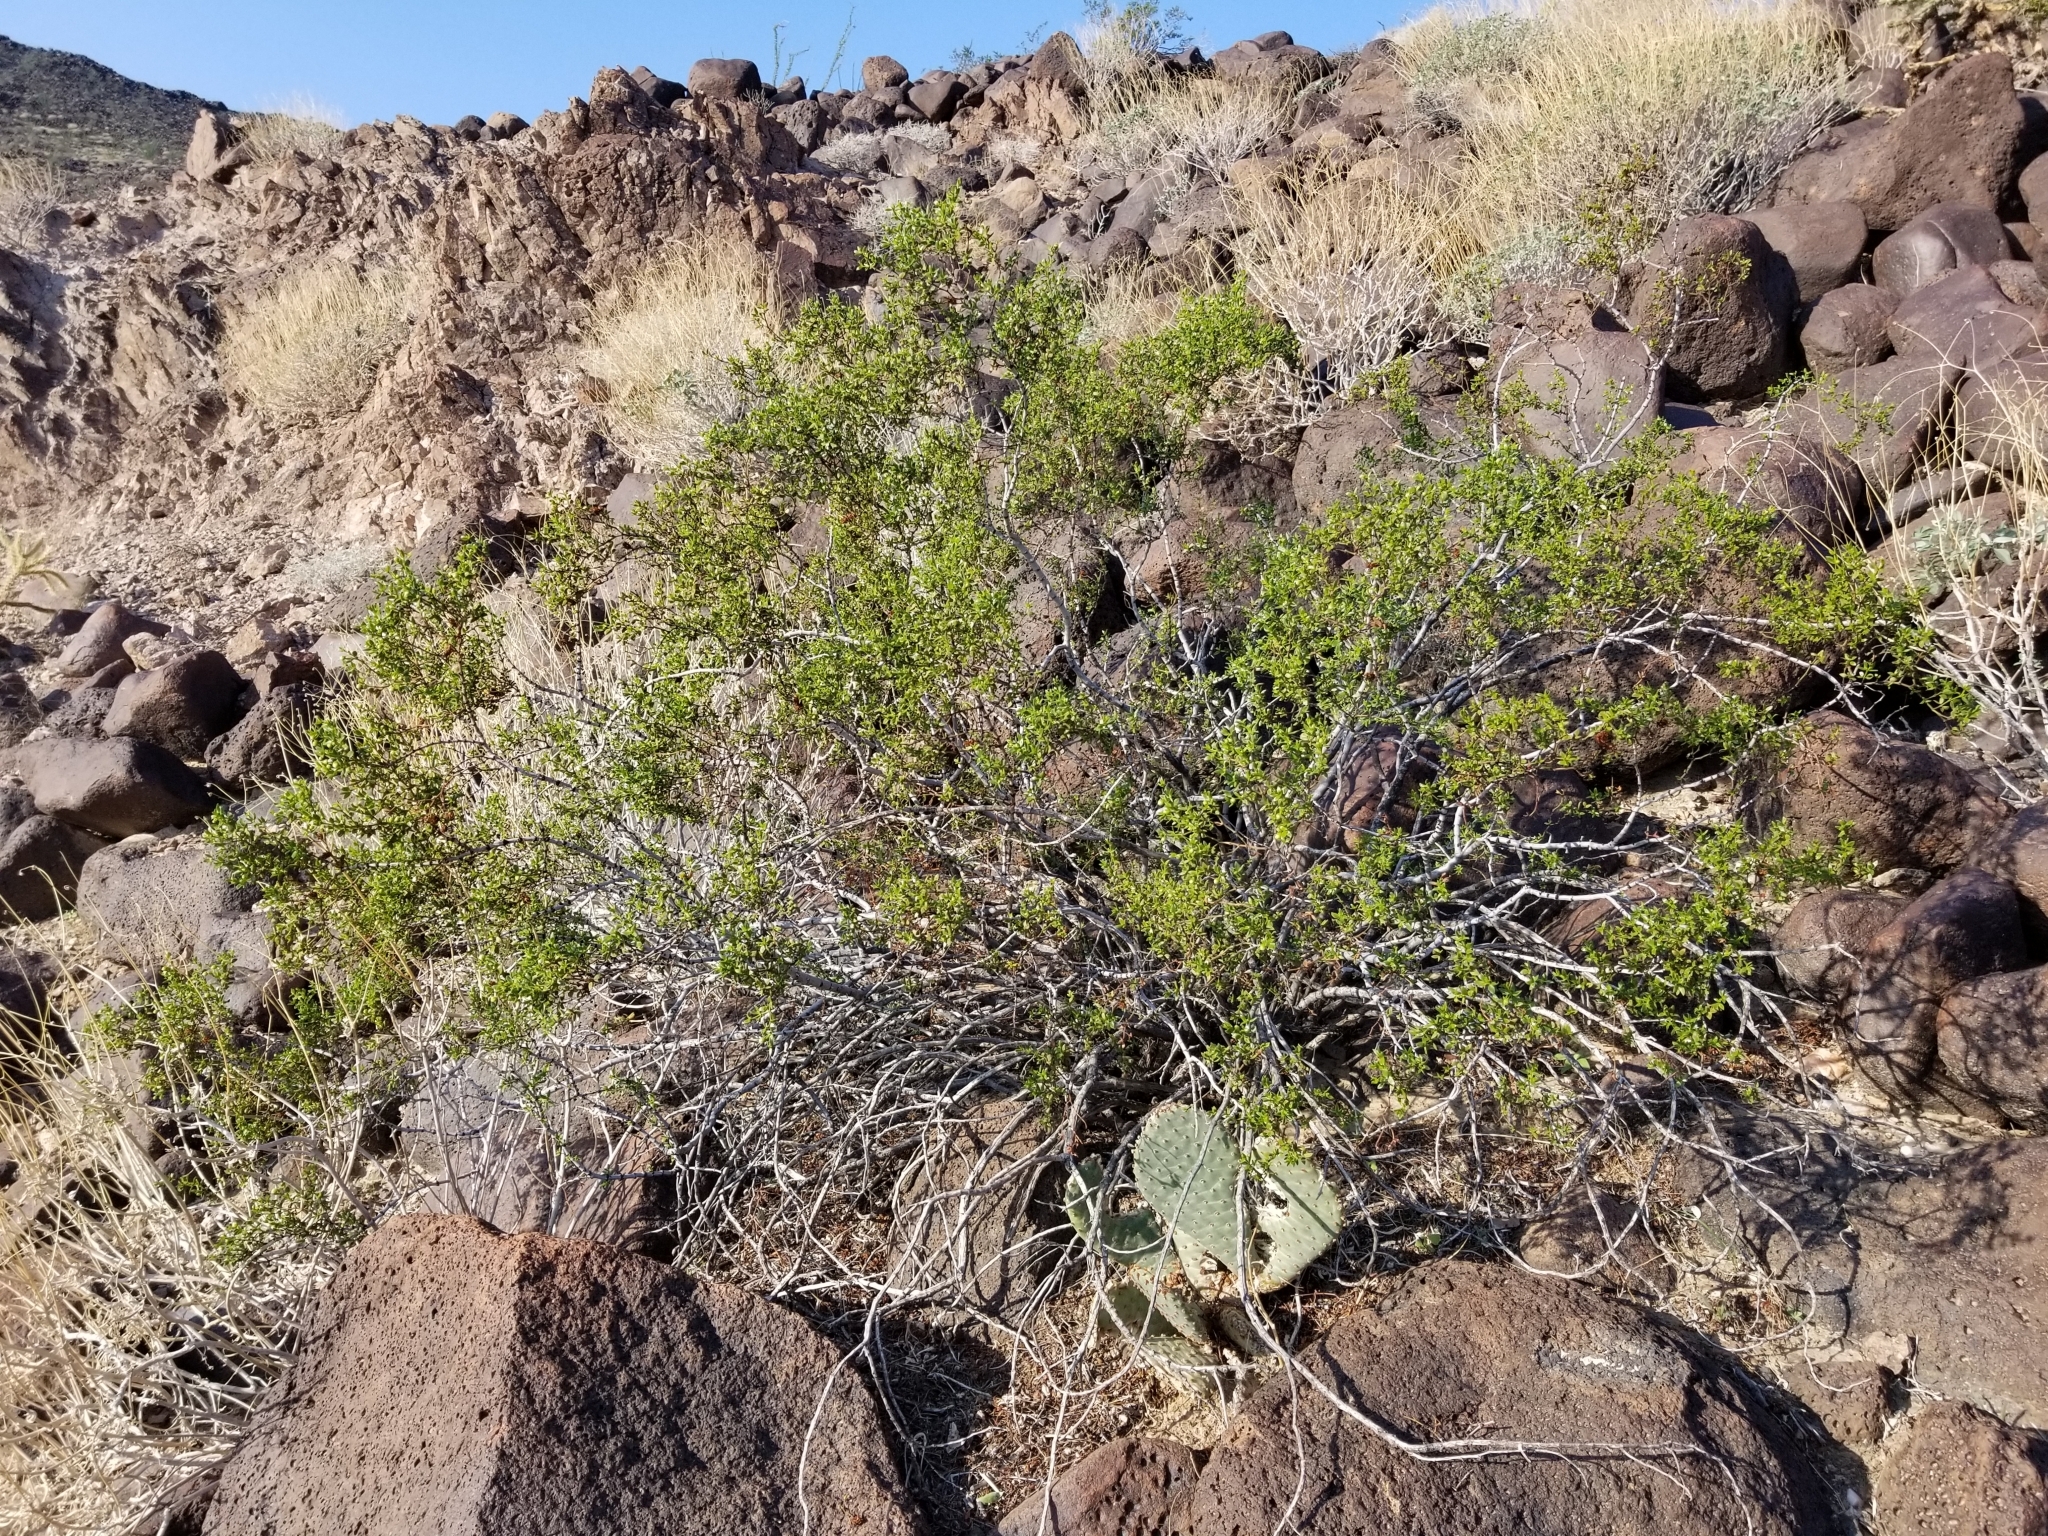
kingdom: Plantae
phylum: Tracheophyta
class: Magnoliopsida
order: Zygophyllales
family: Zygophyllaceae
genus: Larrea
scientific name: Larrea tridentata
